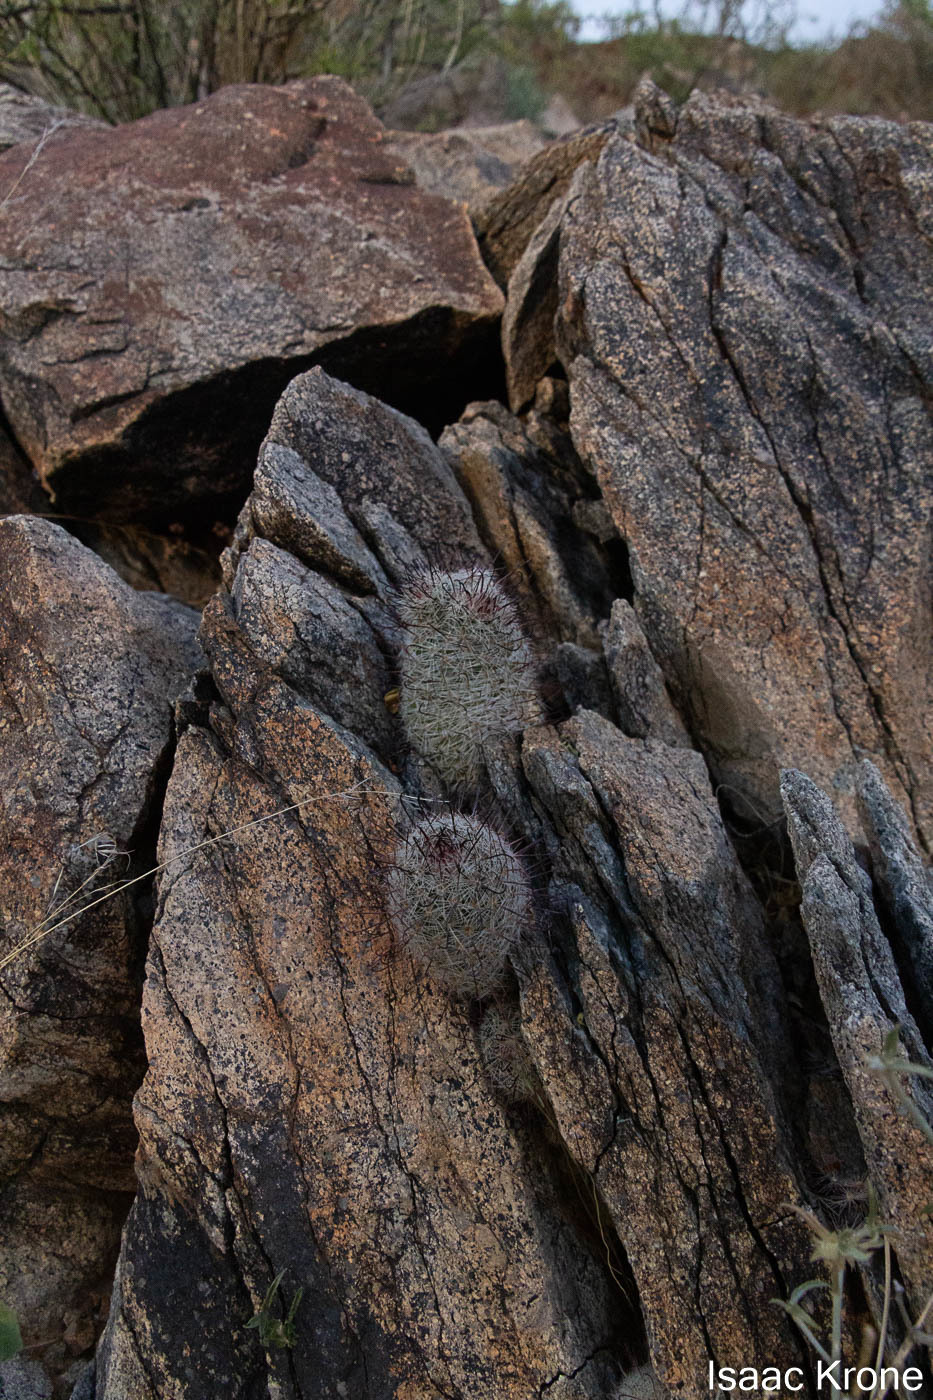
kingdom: Plantae
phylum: Tracheophyta
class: Magnoliopsida
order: Caryophyllales
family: Cactaceae
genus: Cochemiea
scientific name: Cochemiea grahamii
